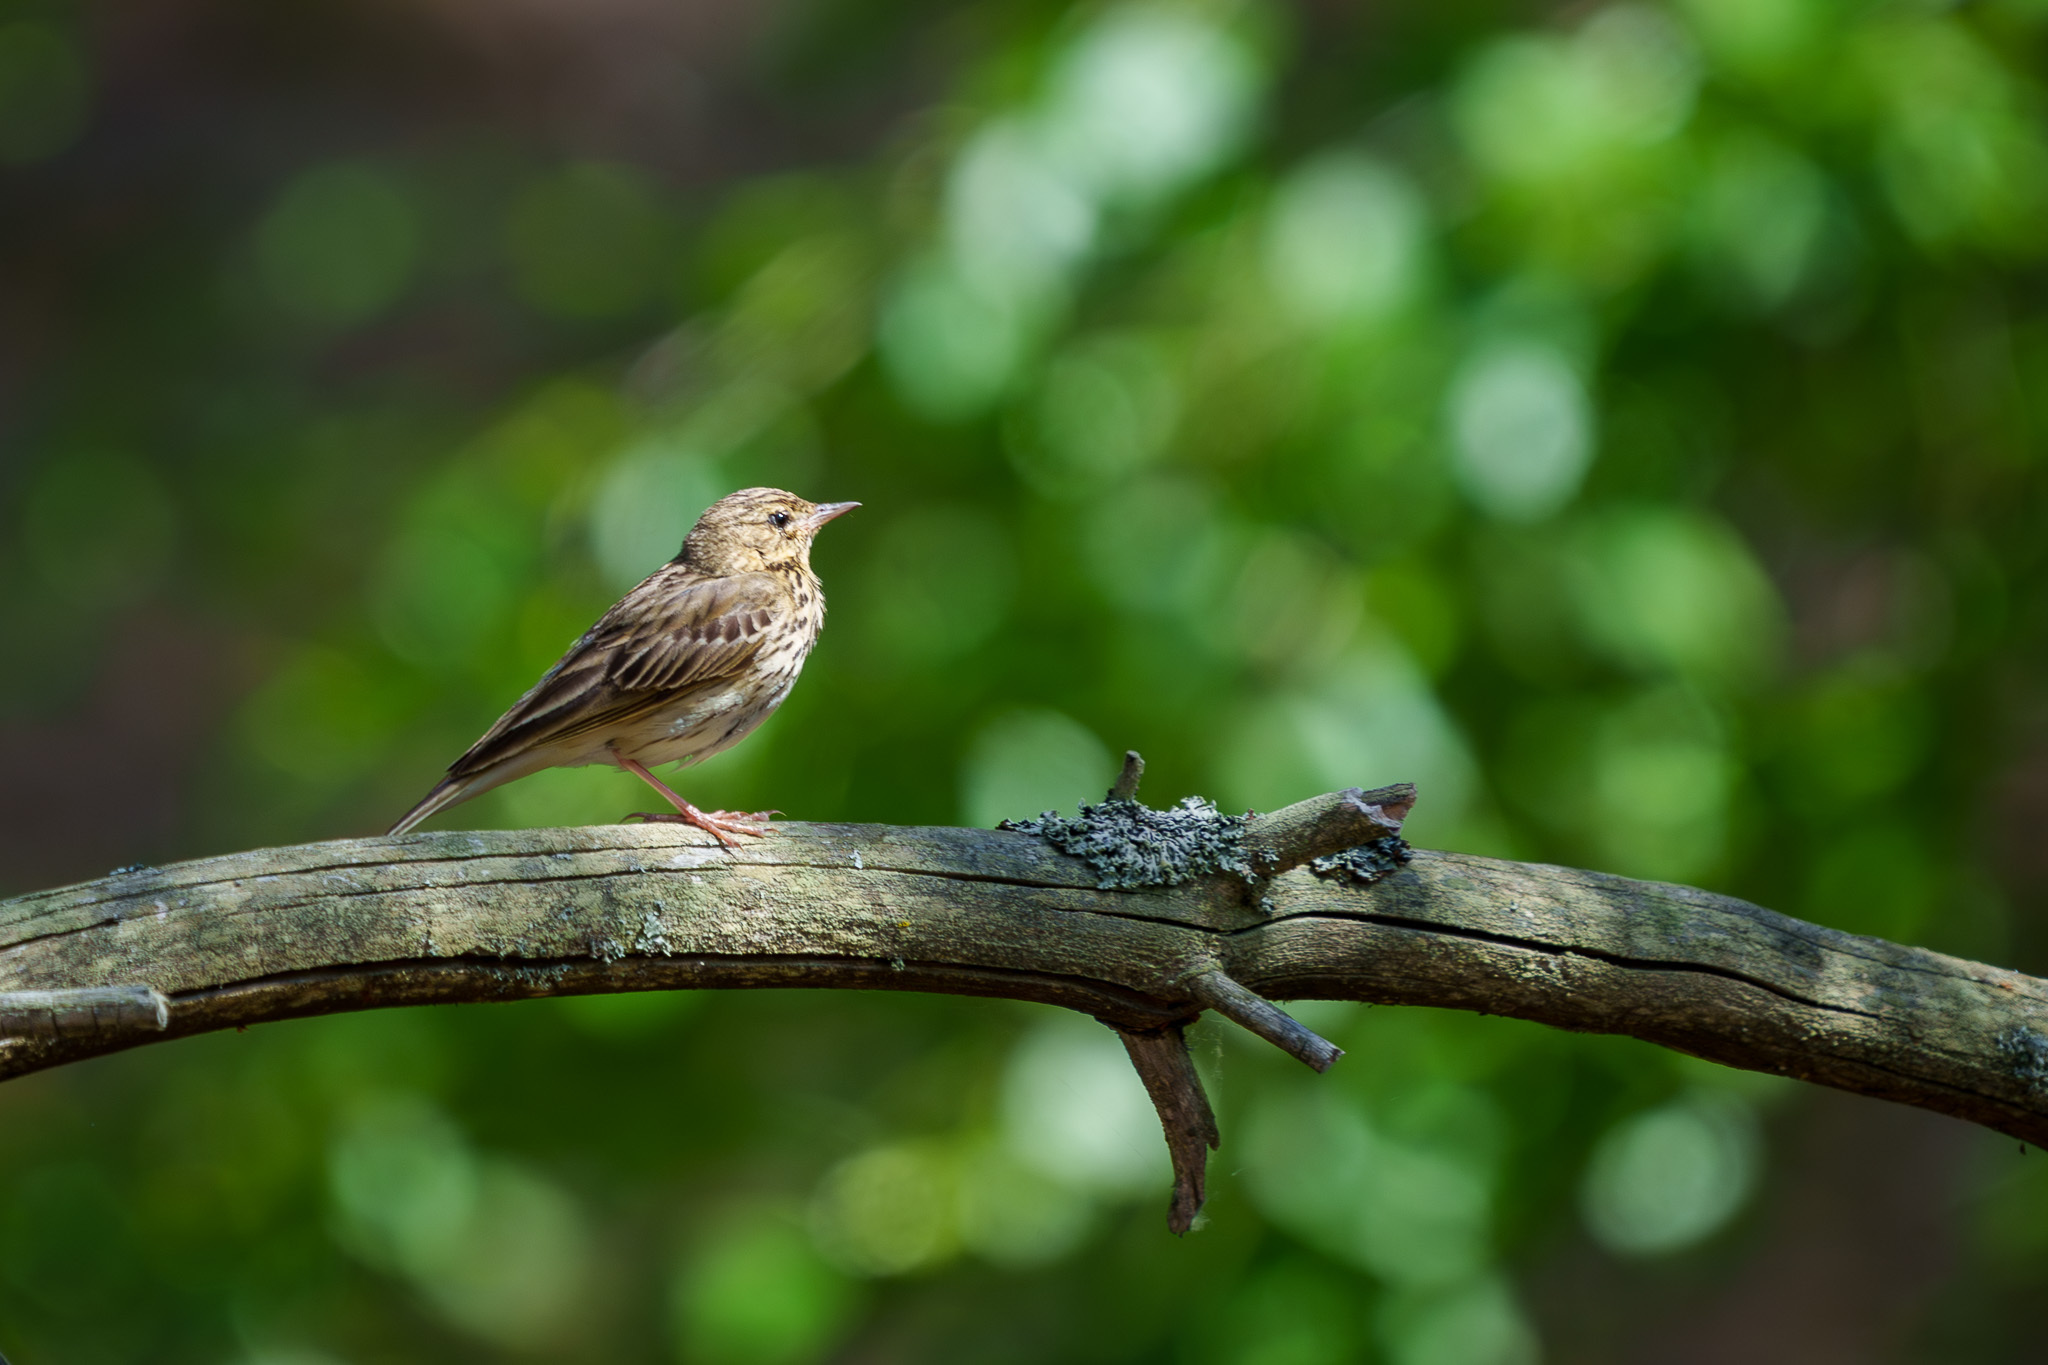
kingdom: Animalia
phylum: Chordata
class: Aves
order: Passeriformes
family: Motacillidae
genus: Anthus
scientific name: Anthus trivialis
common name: Tree pipit
